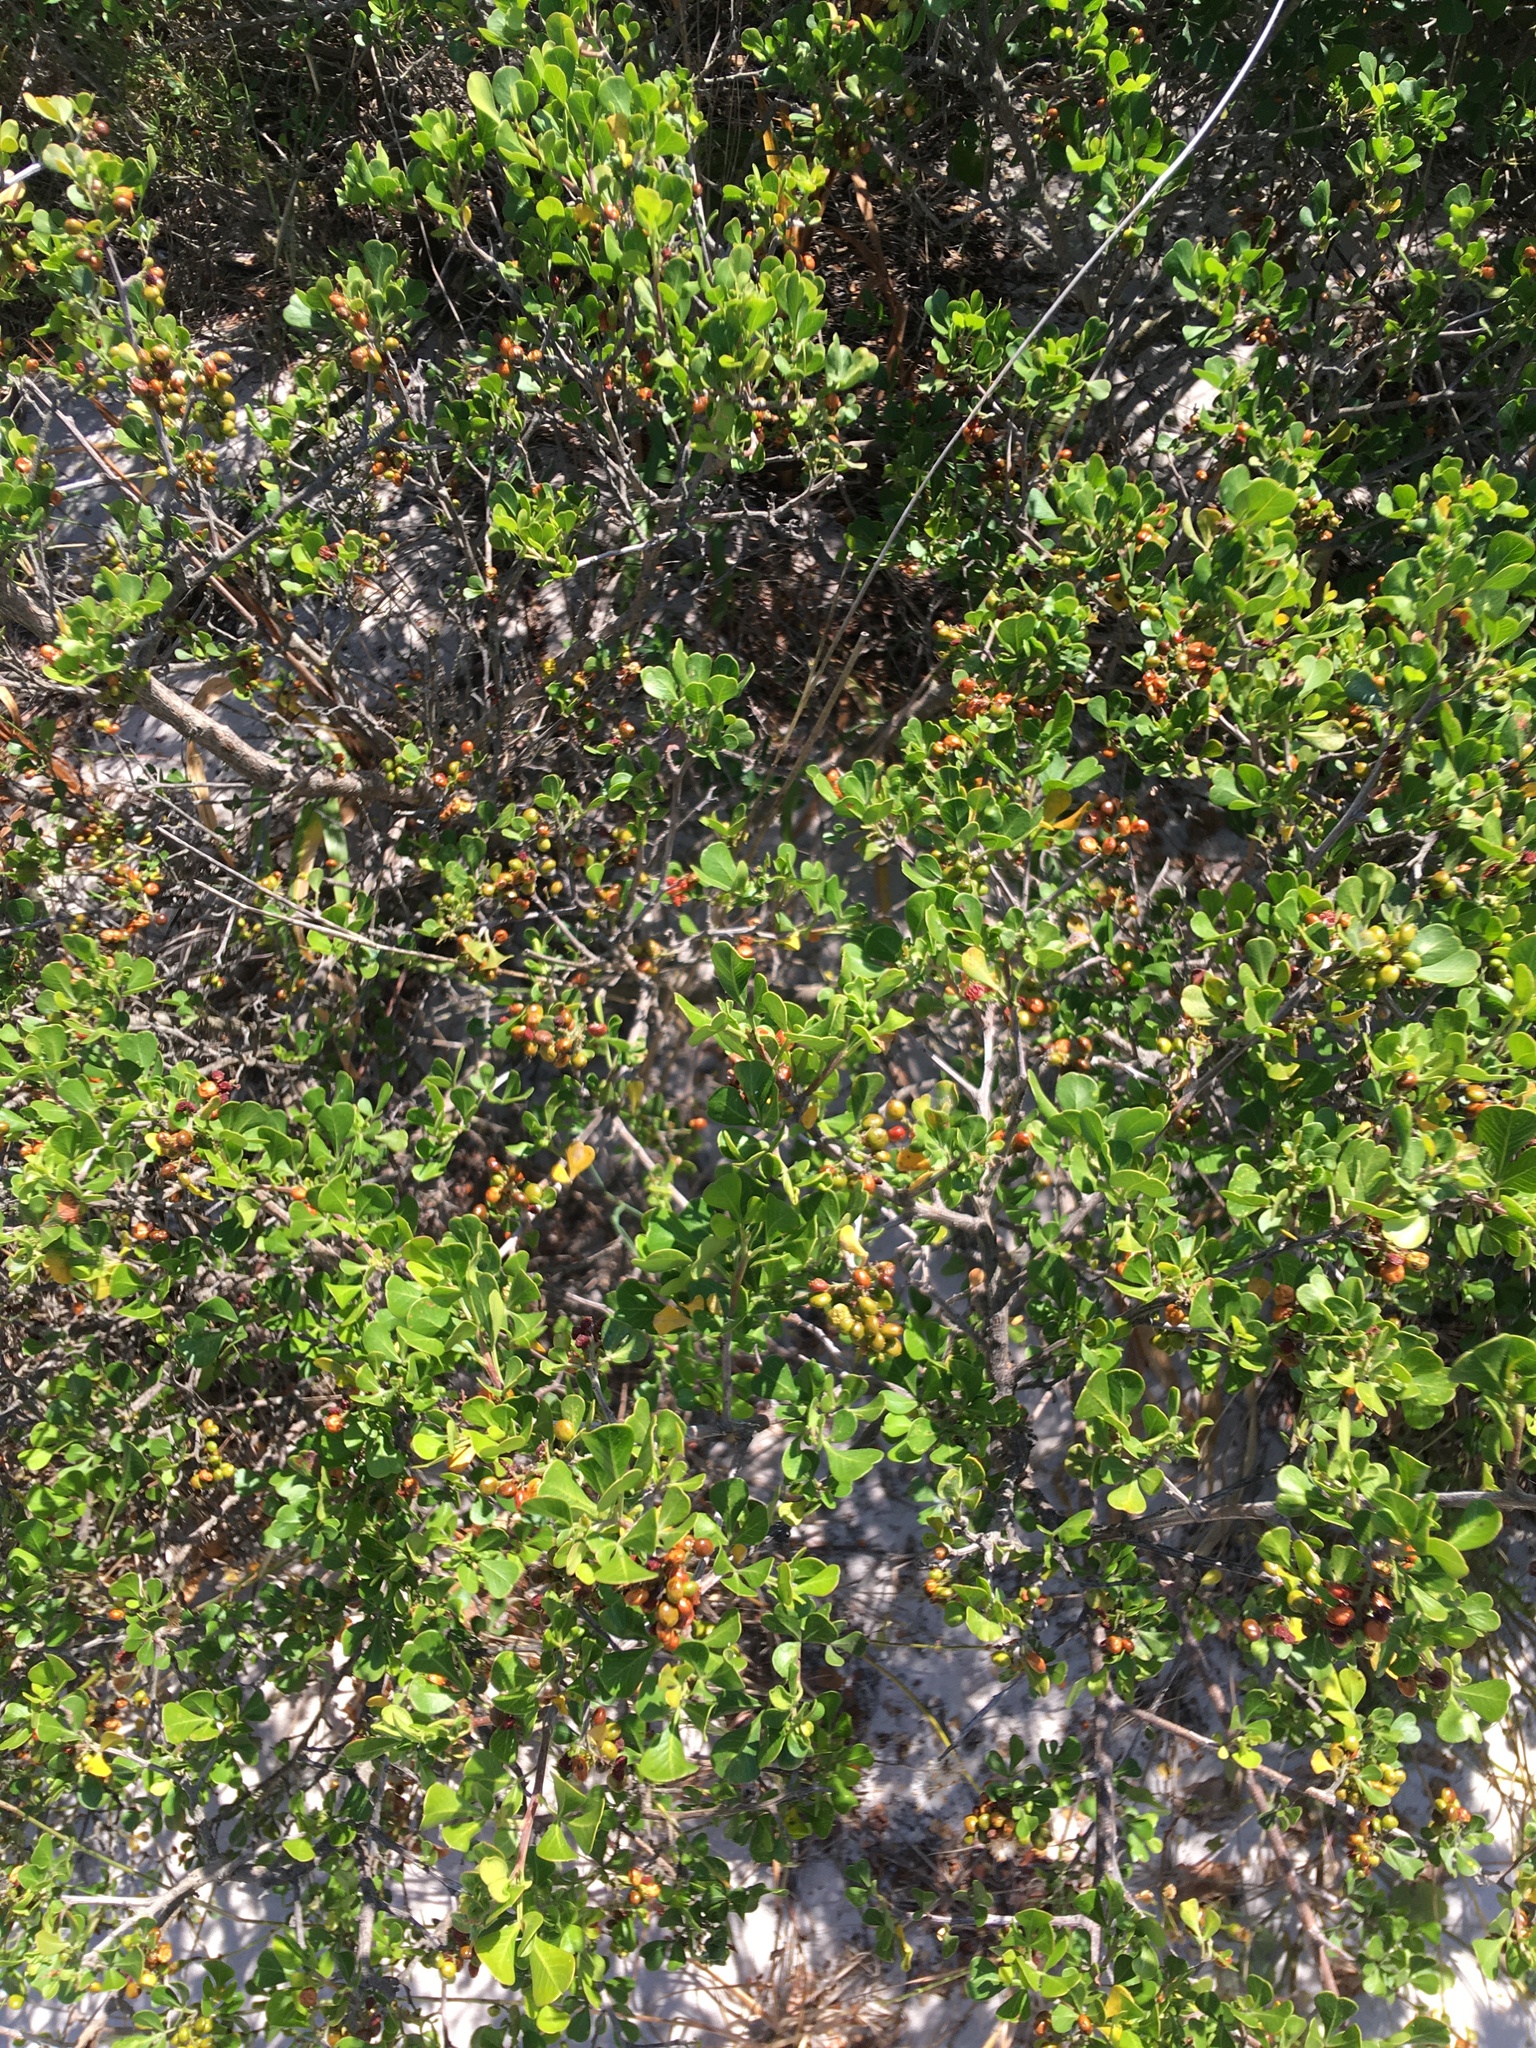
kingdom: Plantae
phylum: Tracheophyta
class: Magnoliopsida
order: Sapindales
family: Anacardiaceae
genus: Searsia
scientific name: Searsia glauca
